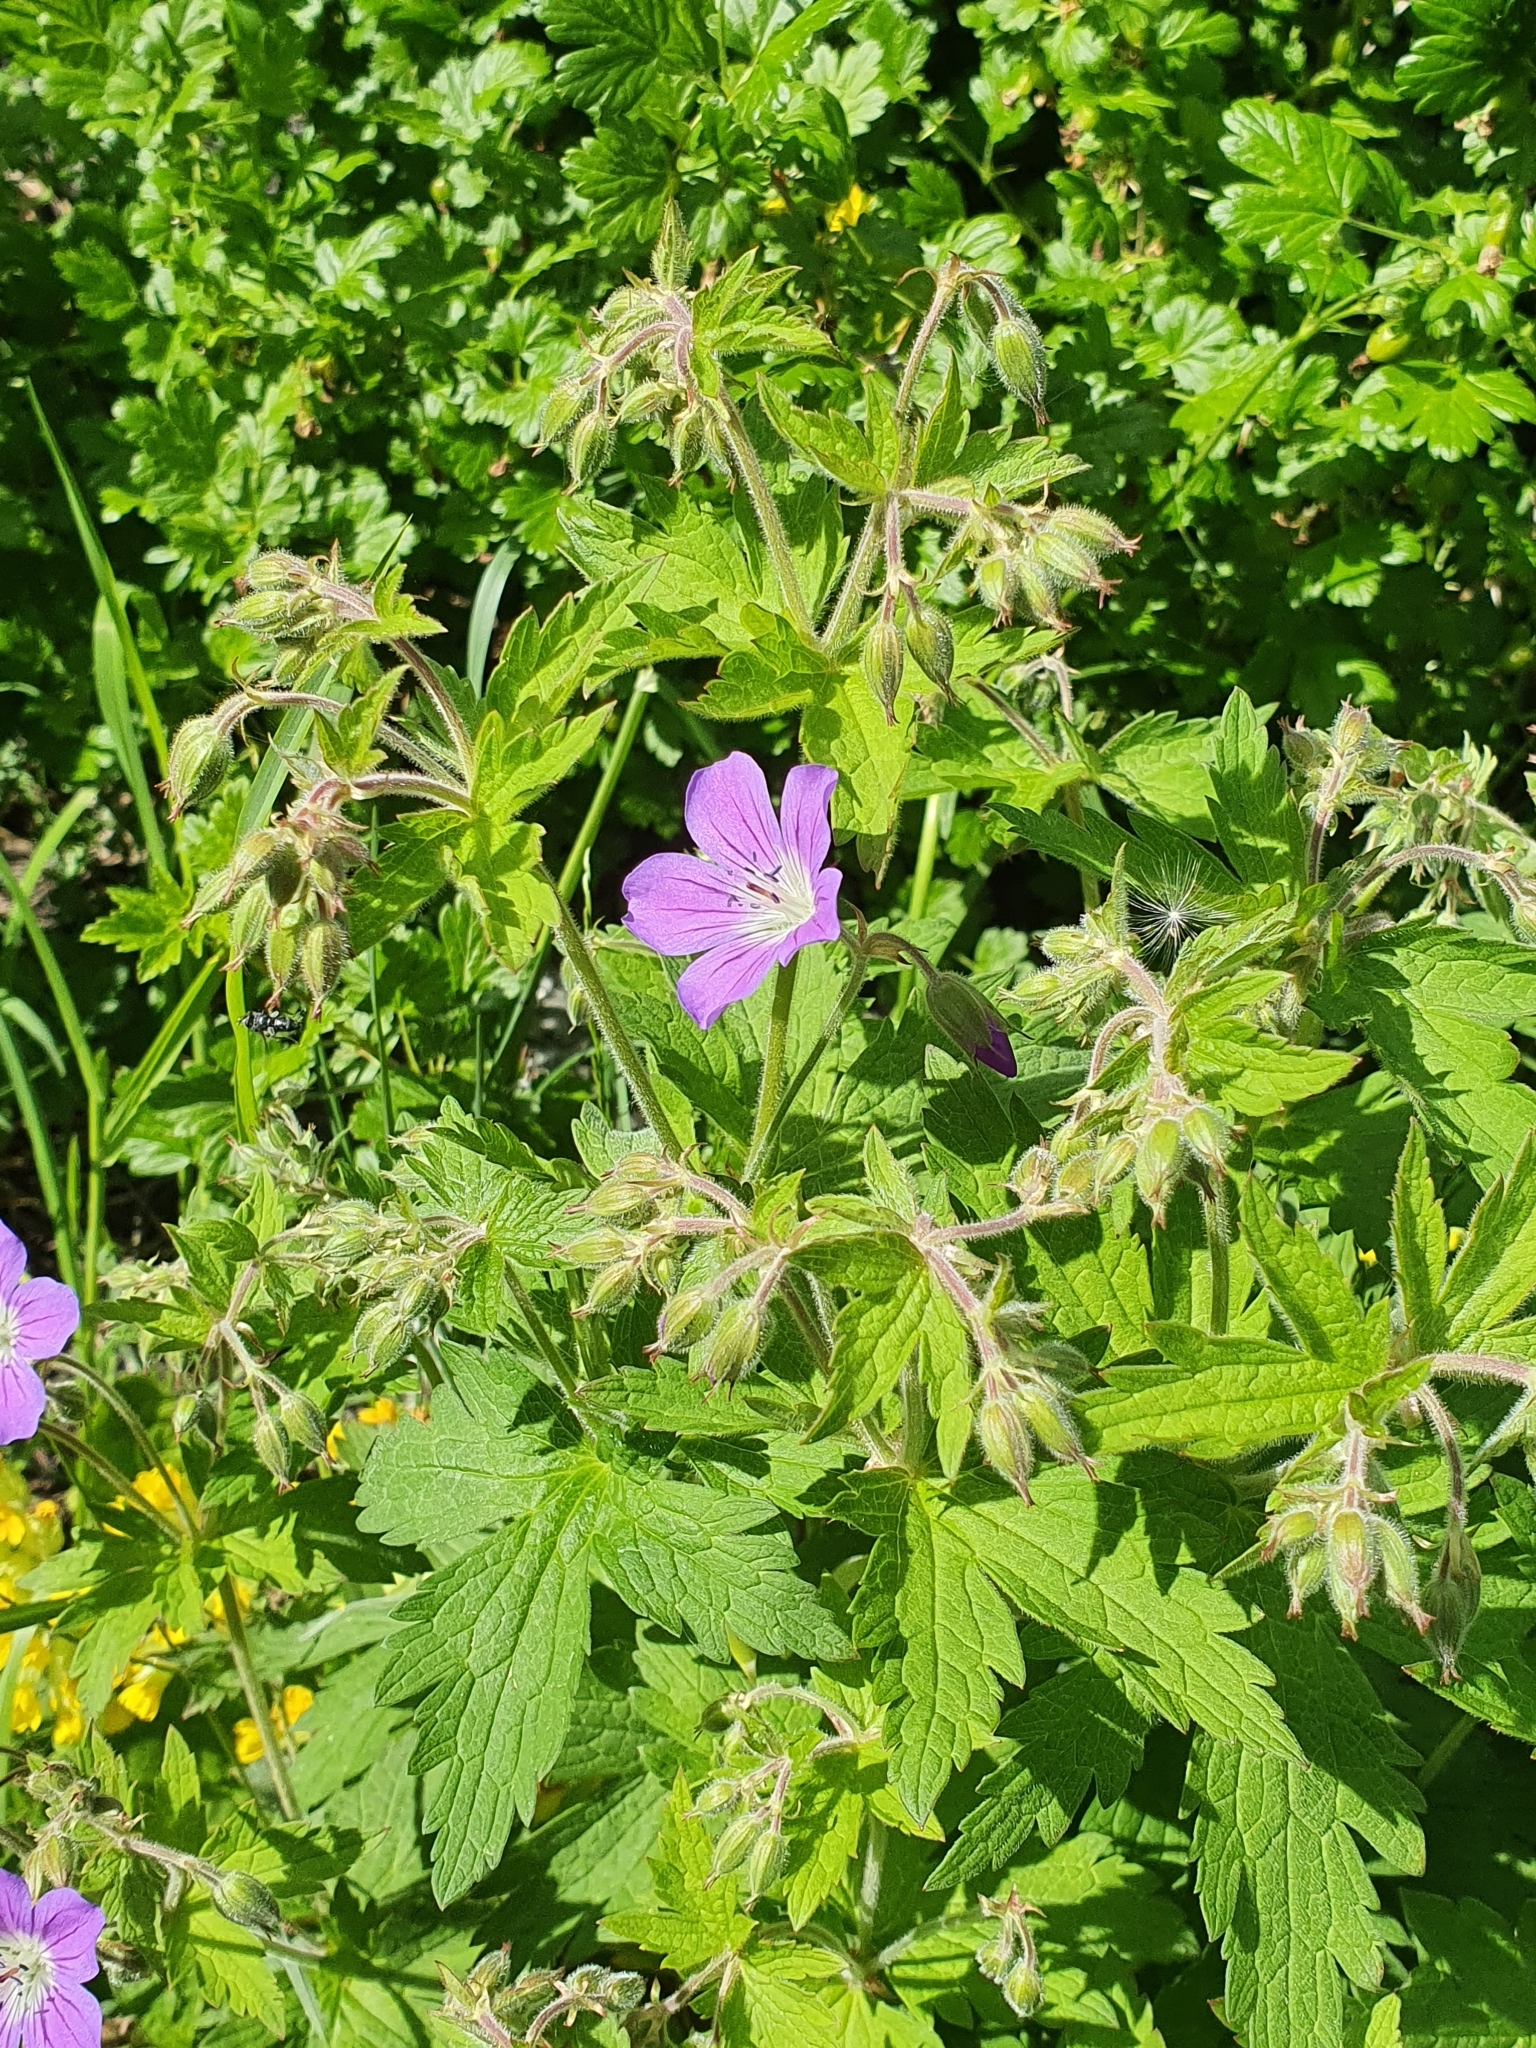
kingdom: Plantae
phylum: Tracheophyta
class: Magnoliopsida
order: Geraniales
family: Geraniaceae
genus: Geranium
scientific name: Geranium sylvaticum
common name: Wood crane's-bill
